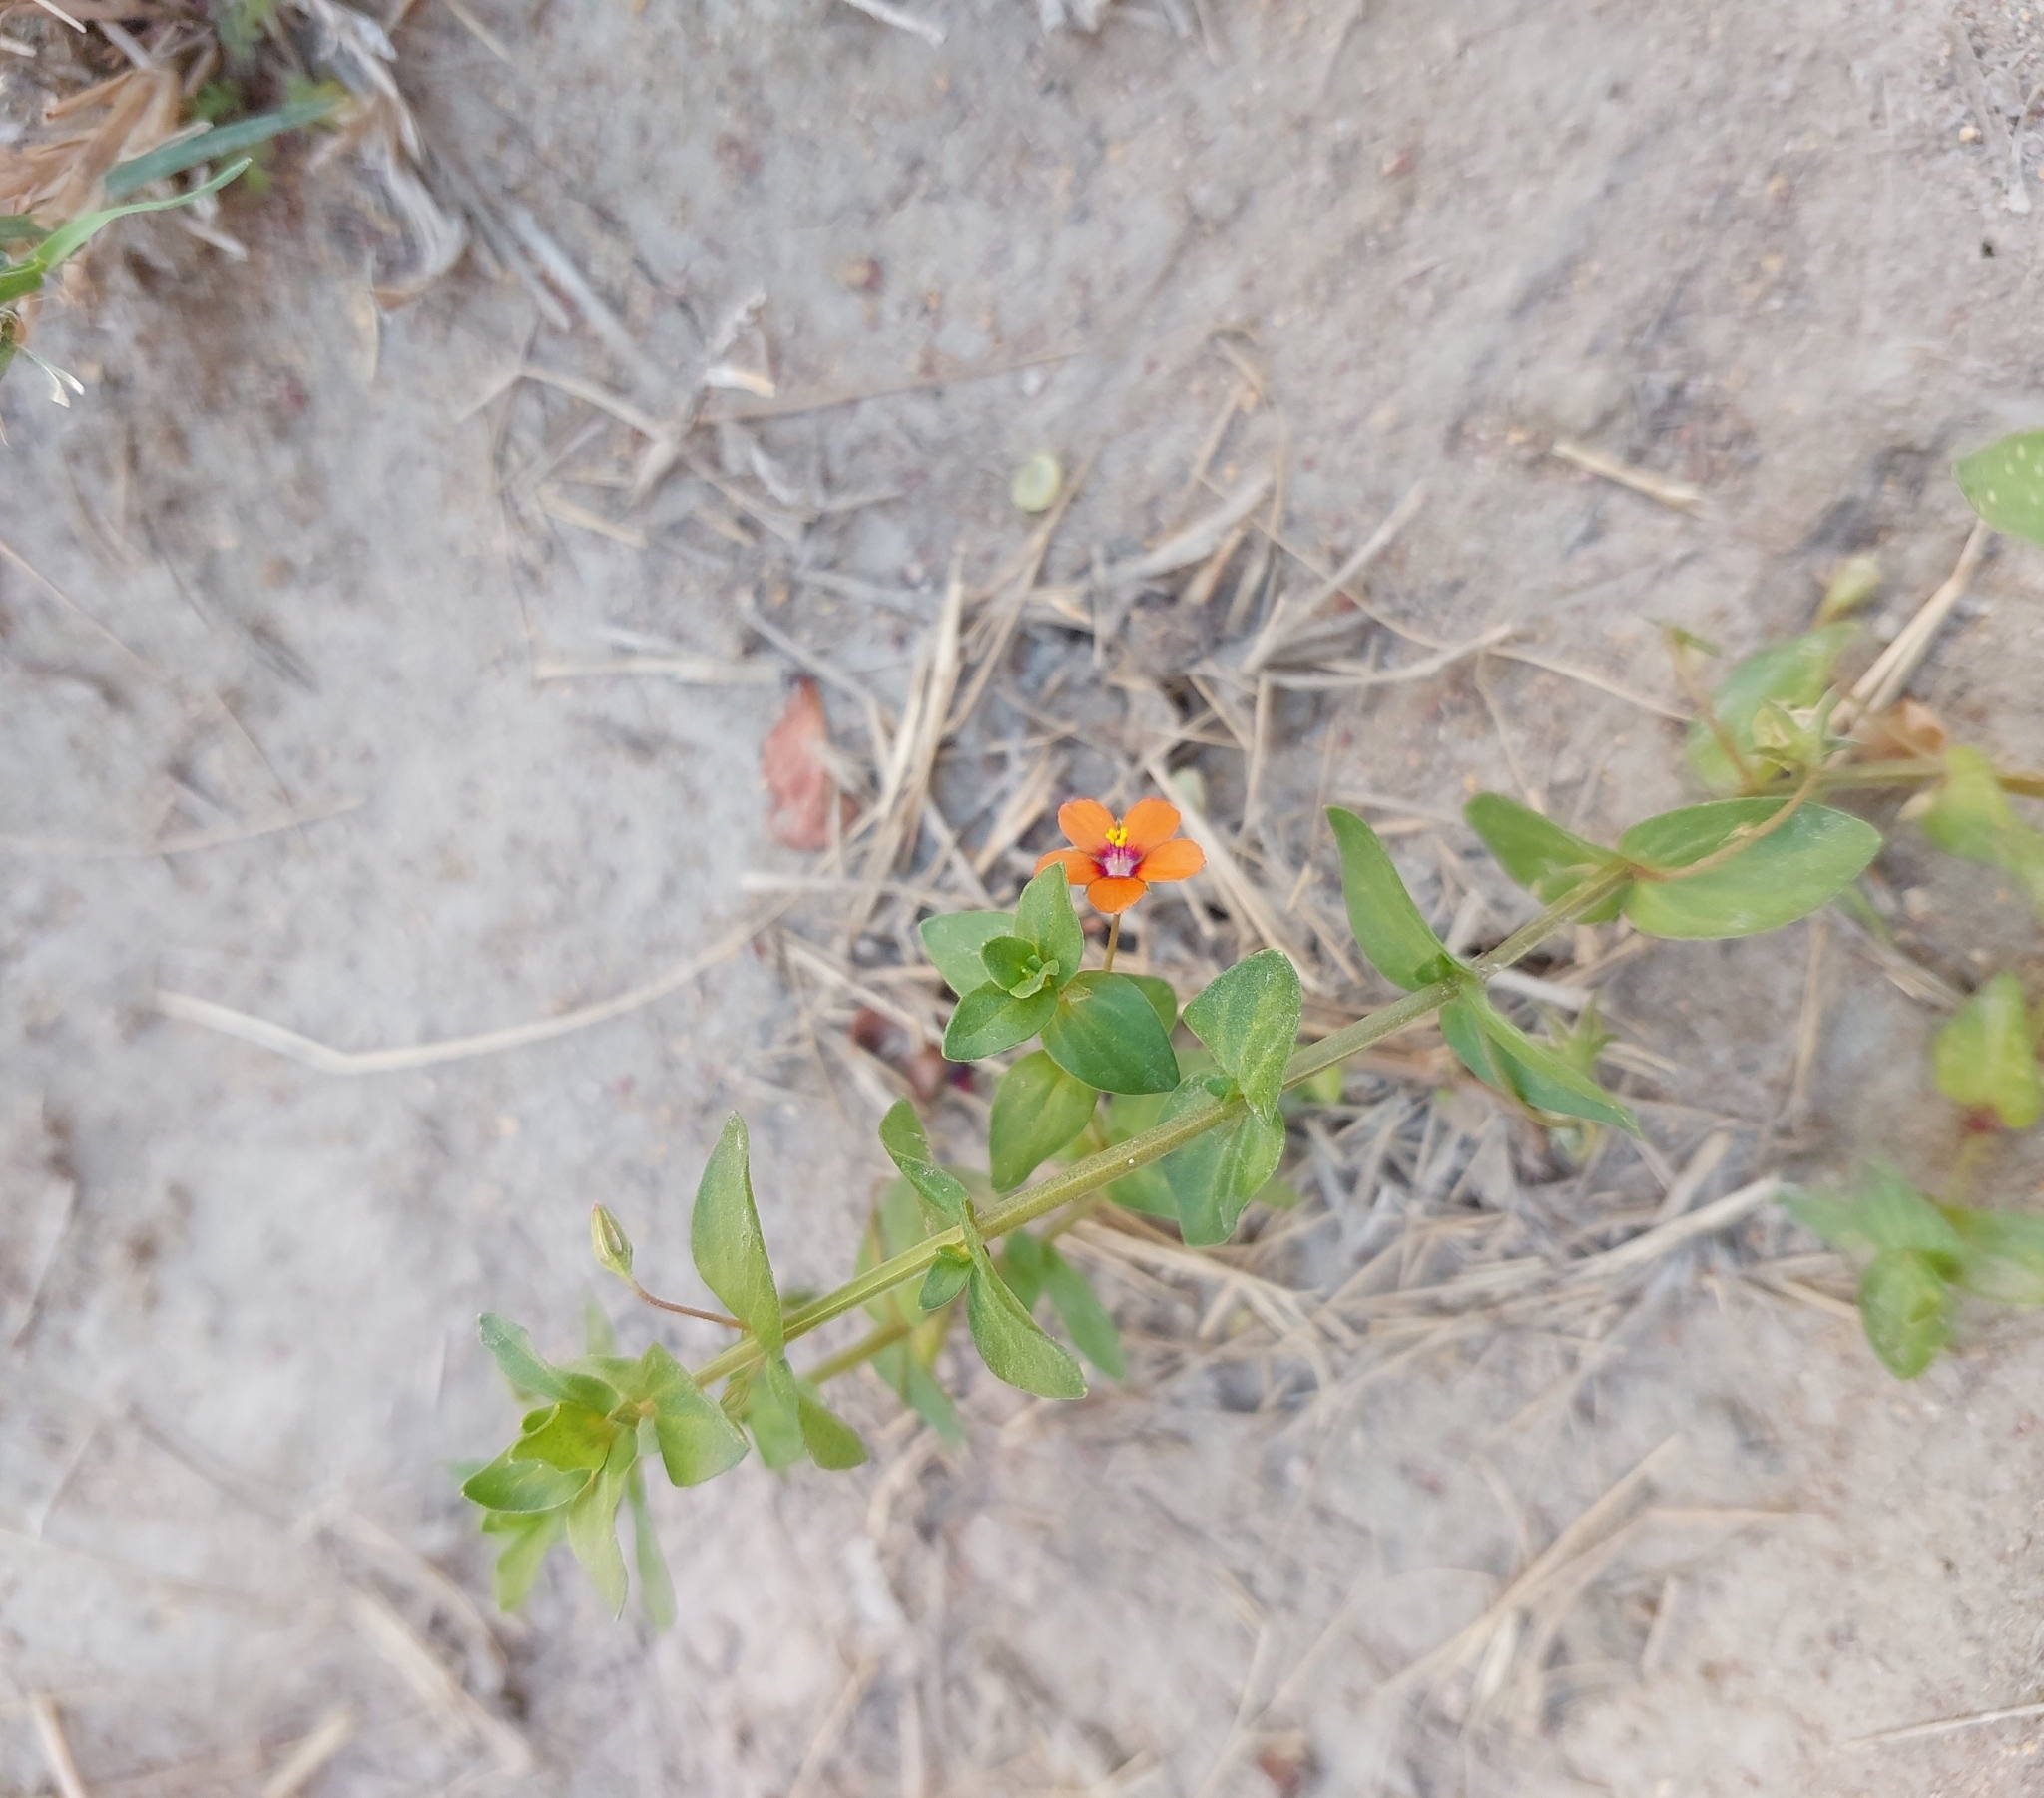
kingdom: Plantae
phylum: Tracheophyta
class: Magnoliopsida
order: Ericales
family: Primulaceae
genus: Lysimachia
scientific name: Lysimachia arvensis
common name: Scarlet pimpernel
